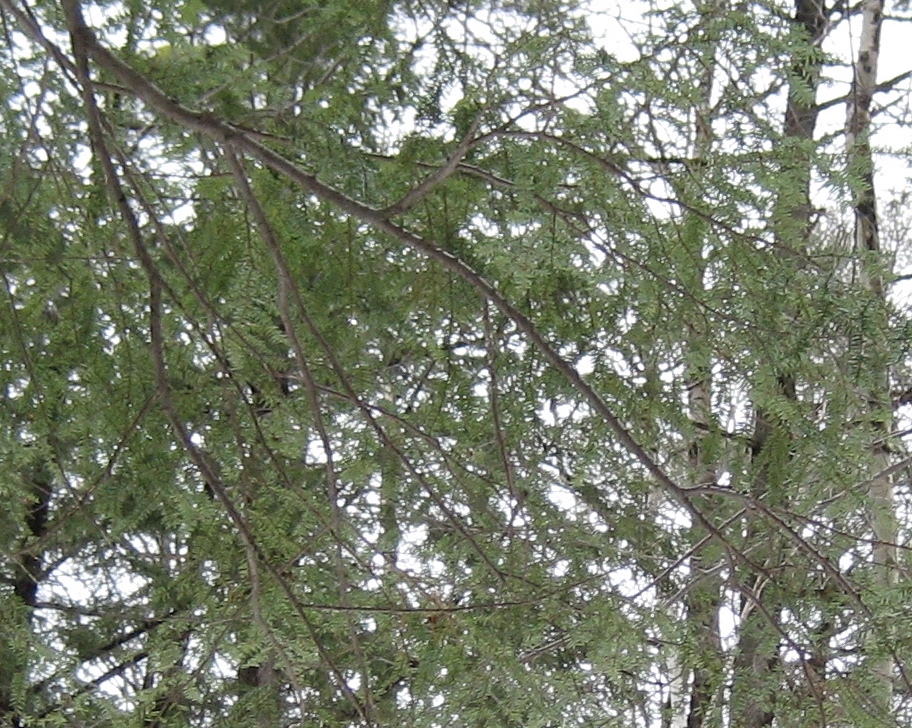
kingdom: Plantae
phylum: Tracheophyta
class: Pinopsida
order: Pinales
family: Pinaceae
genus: Tsuga
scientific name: Tsuga canadensis
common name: Eastern hemlock
